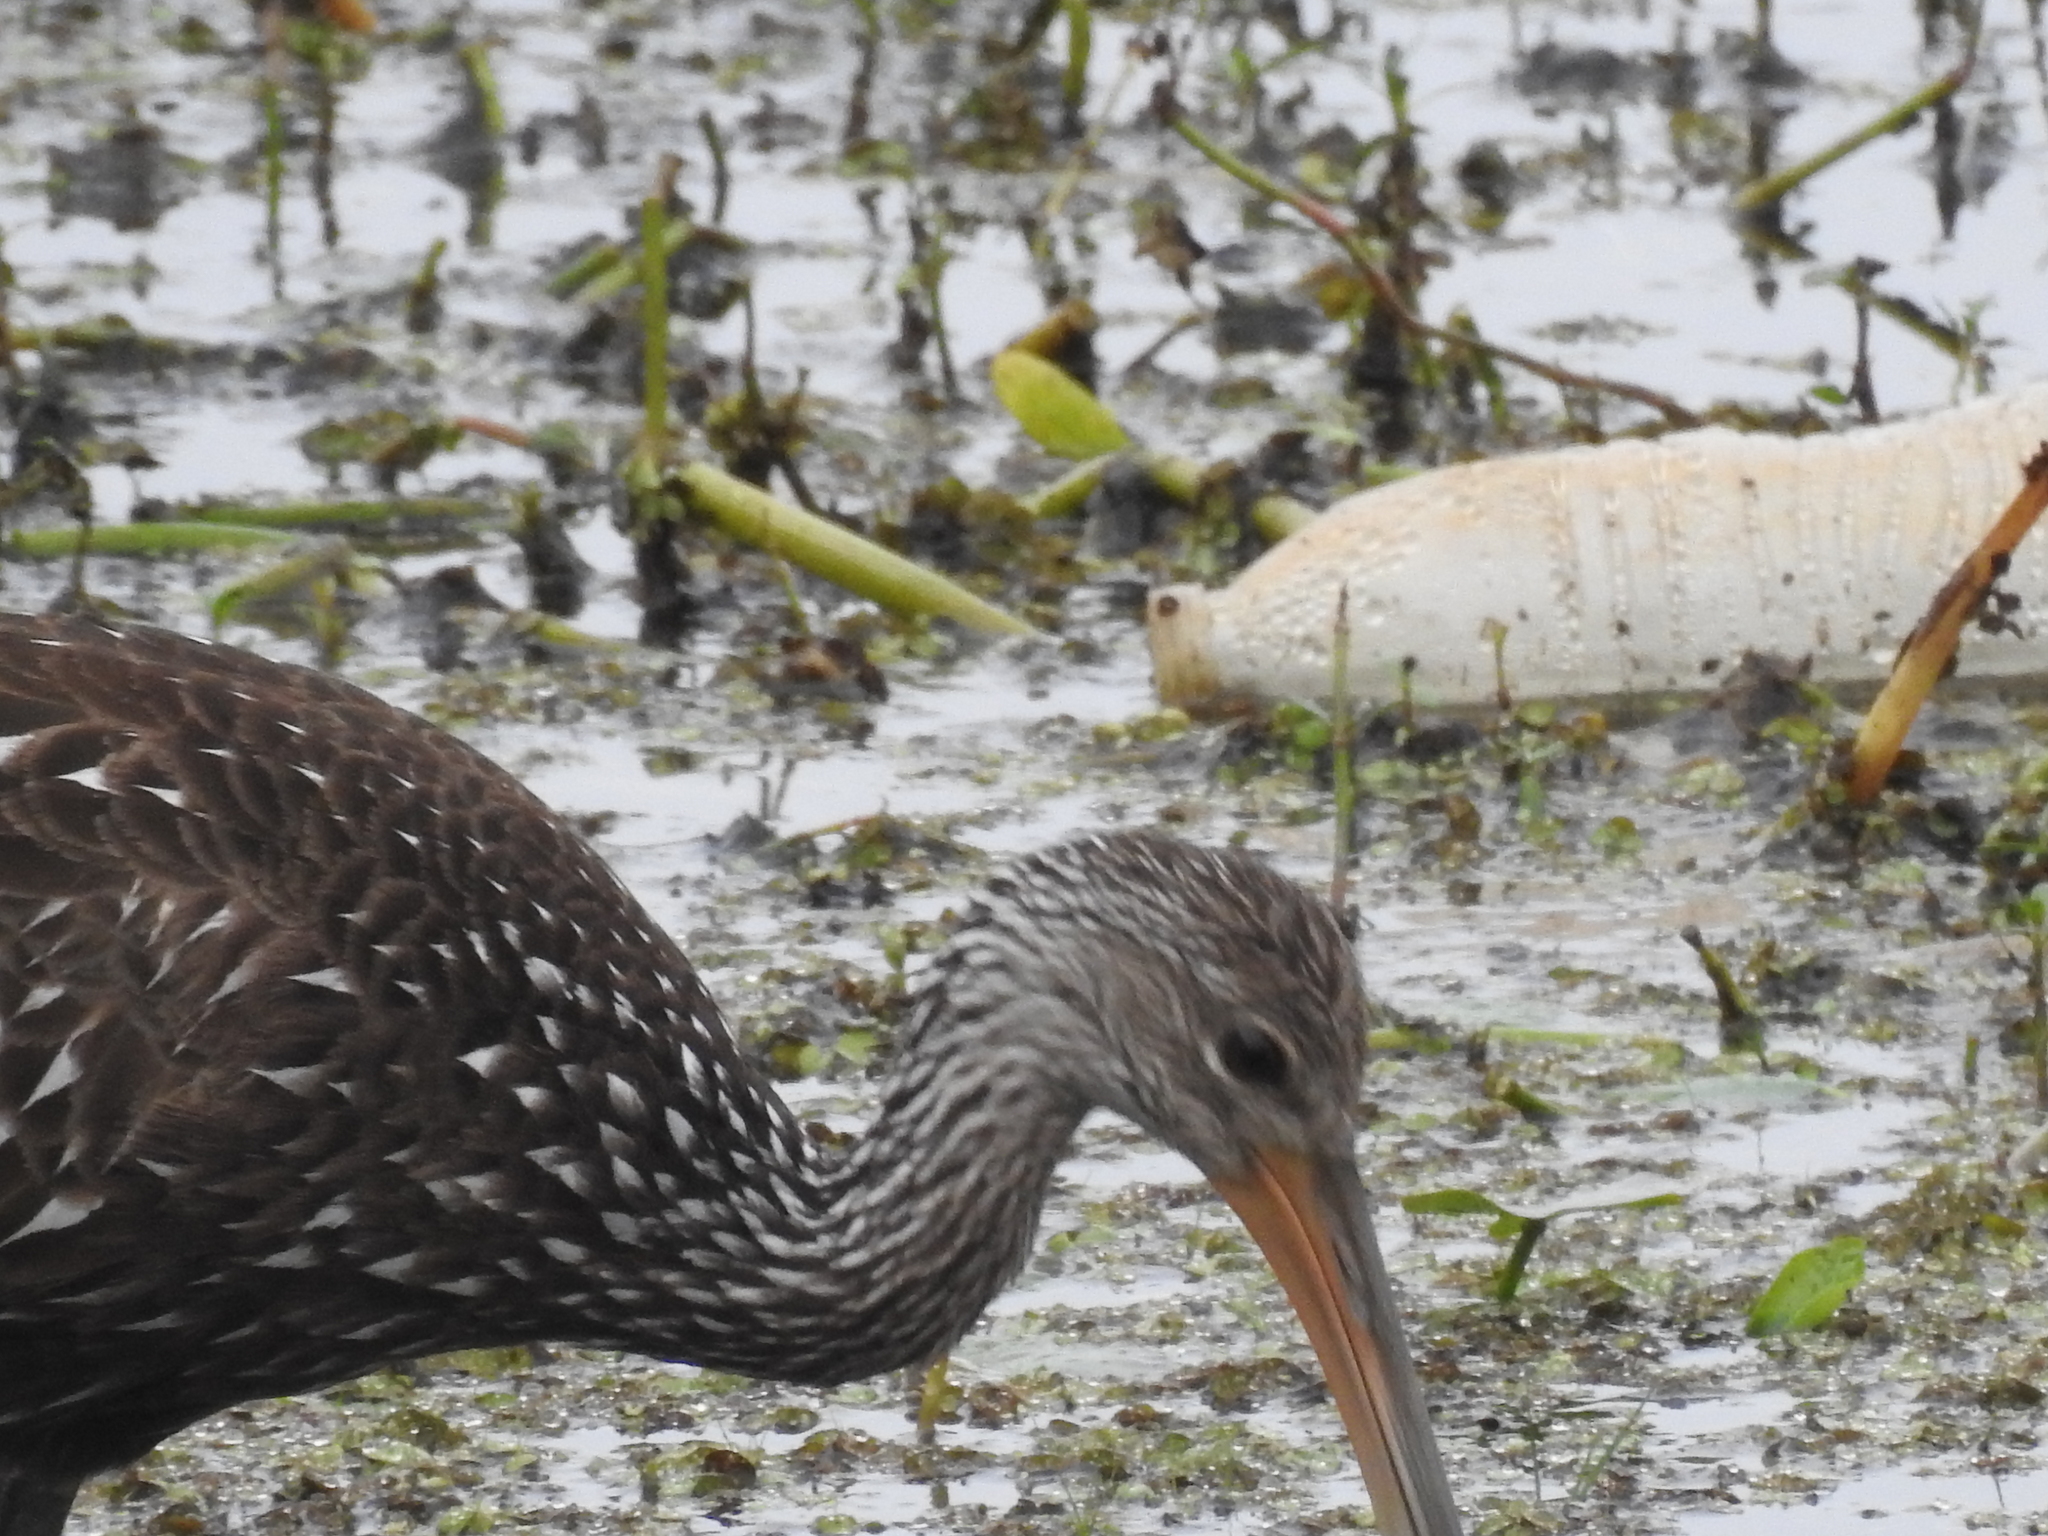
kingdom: Animalia
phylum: Chordata
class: Aves
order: Gruiformes
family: Aramidae
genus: Aramus
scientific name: Aramus guarauna
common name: Limpkin
